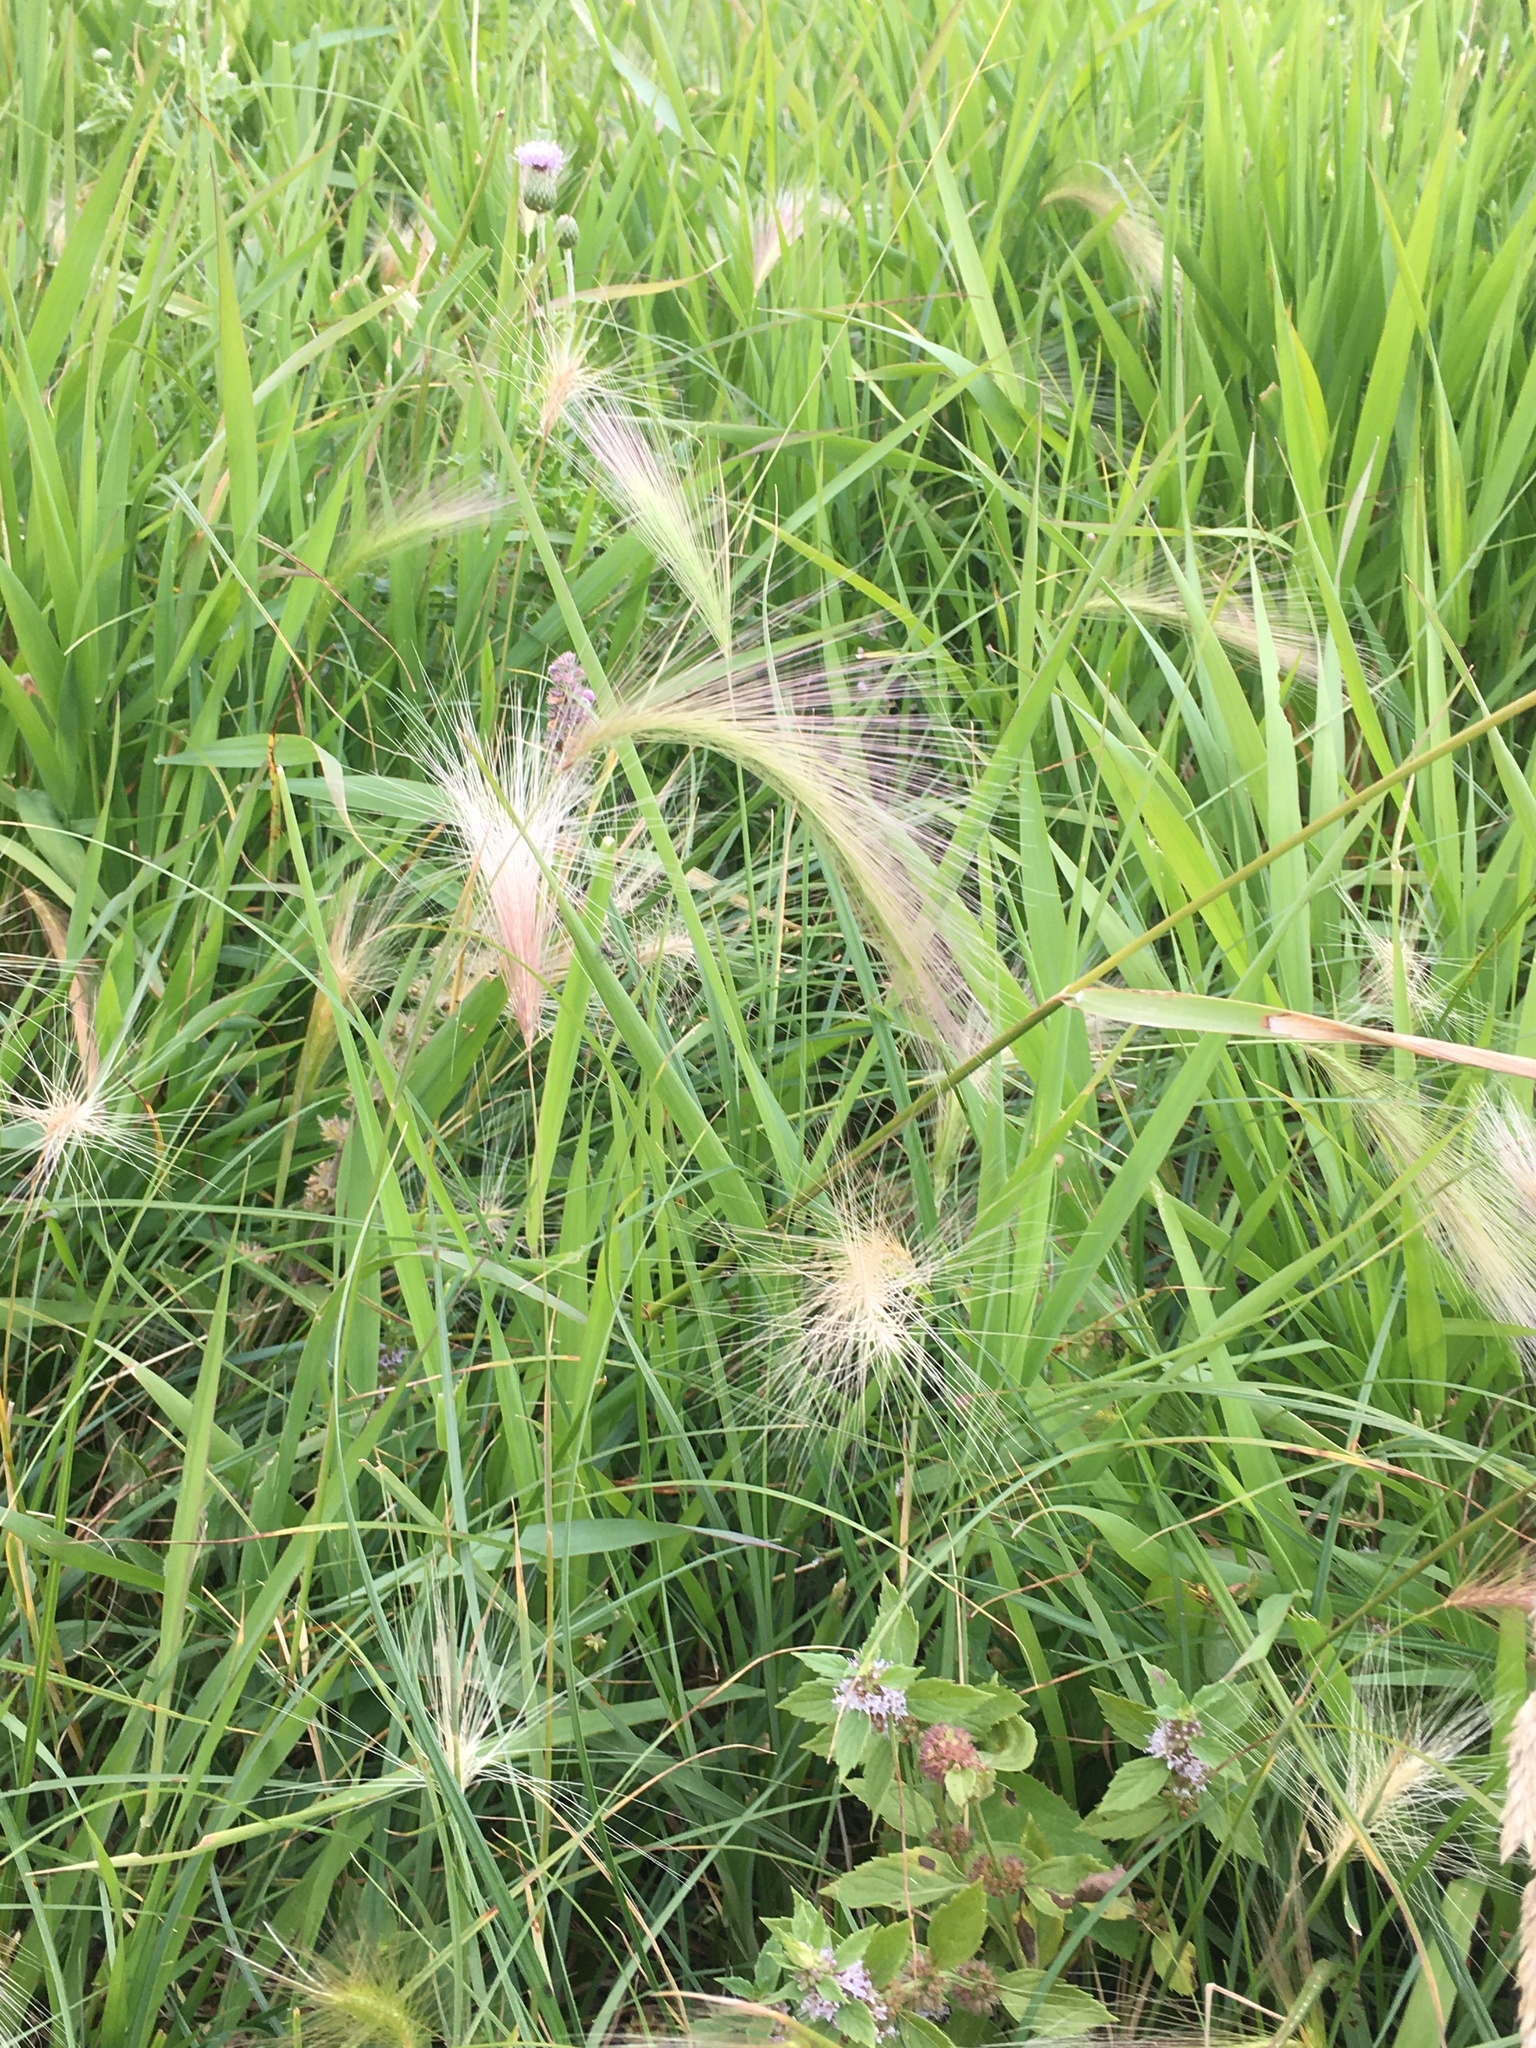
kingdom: Plantae
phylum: Tracheophyta
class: Liliopsida
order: Poales
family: Poaceae
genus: Hordeum
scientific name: Hordeum jubatum
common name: Foxtail barley
